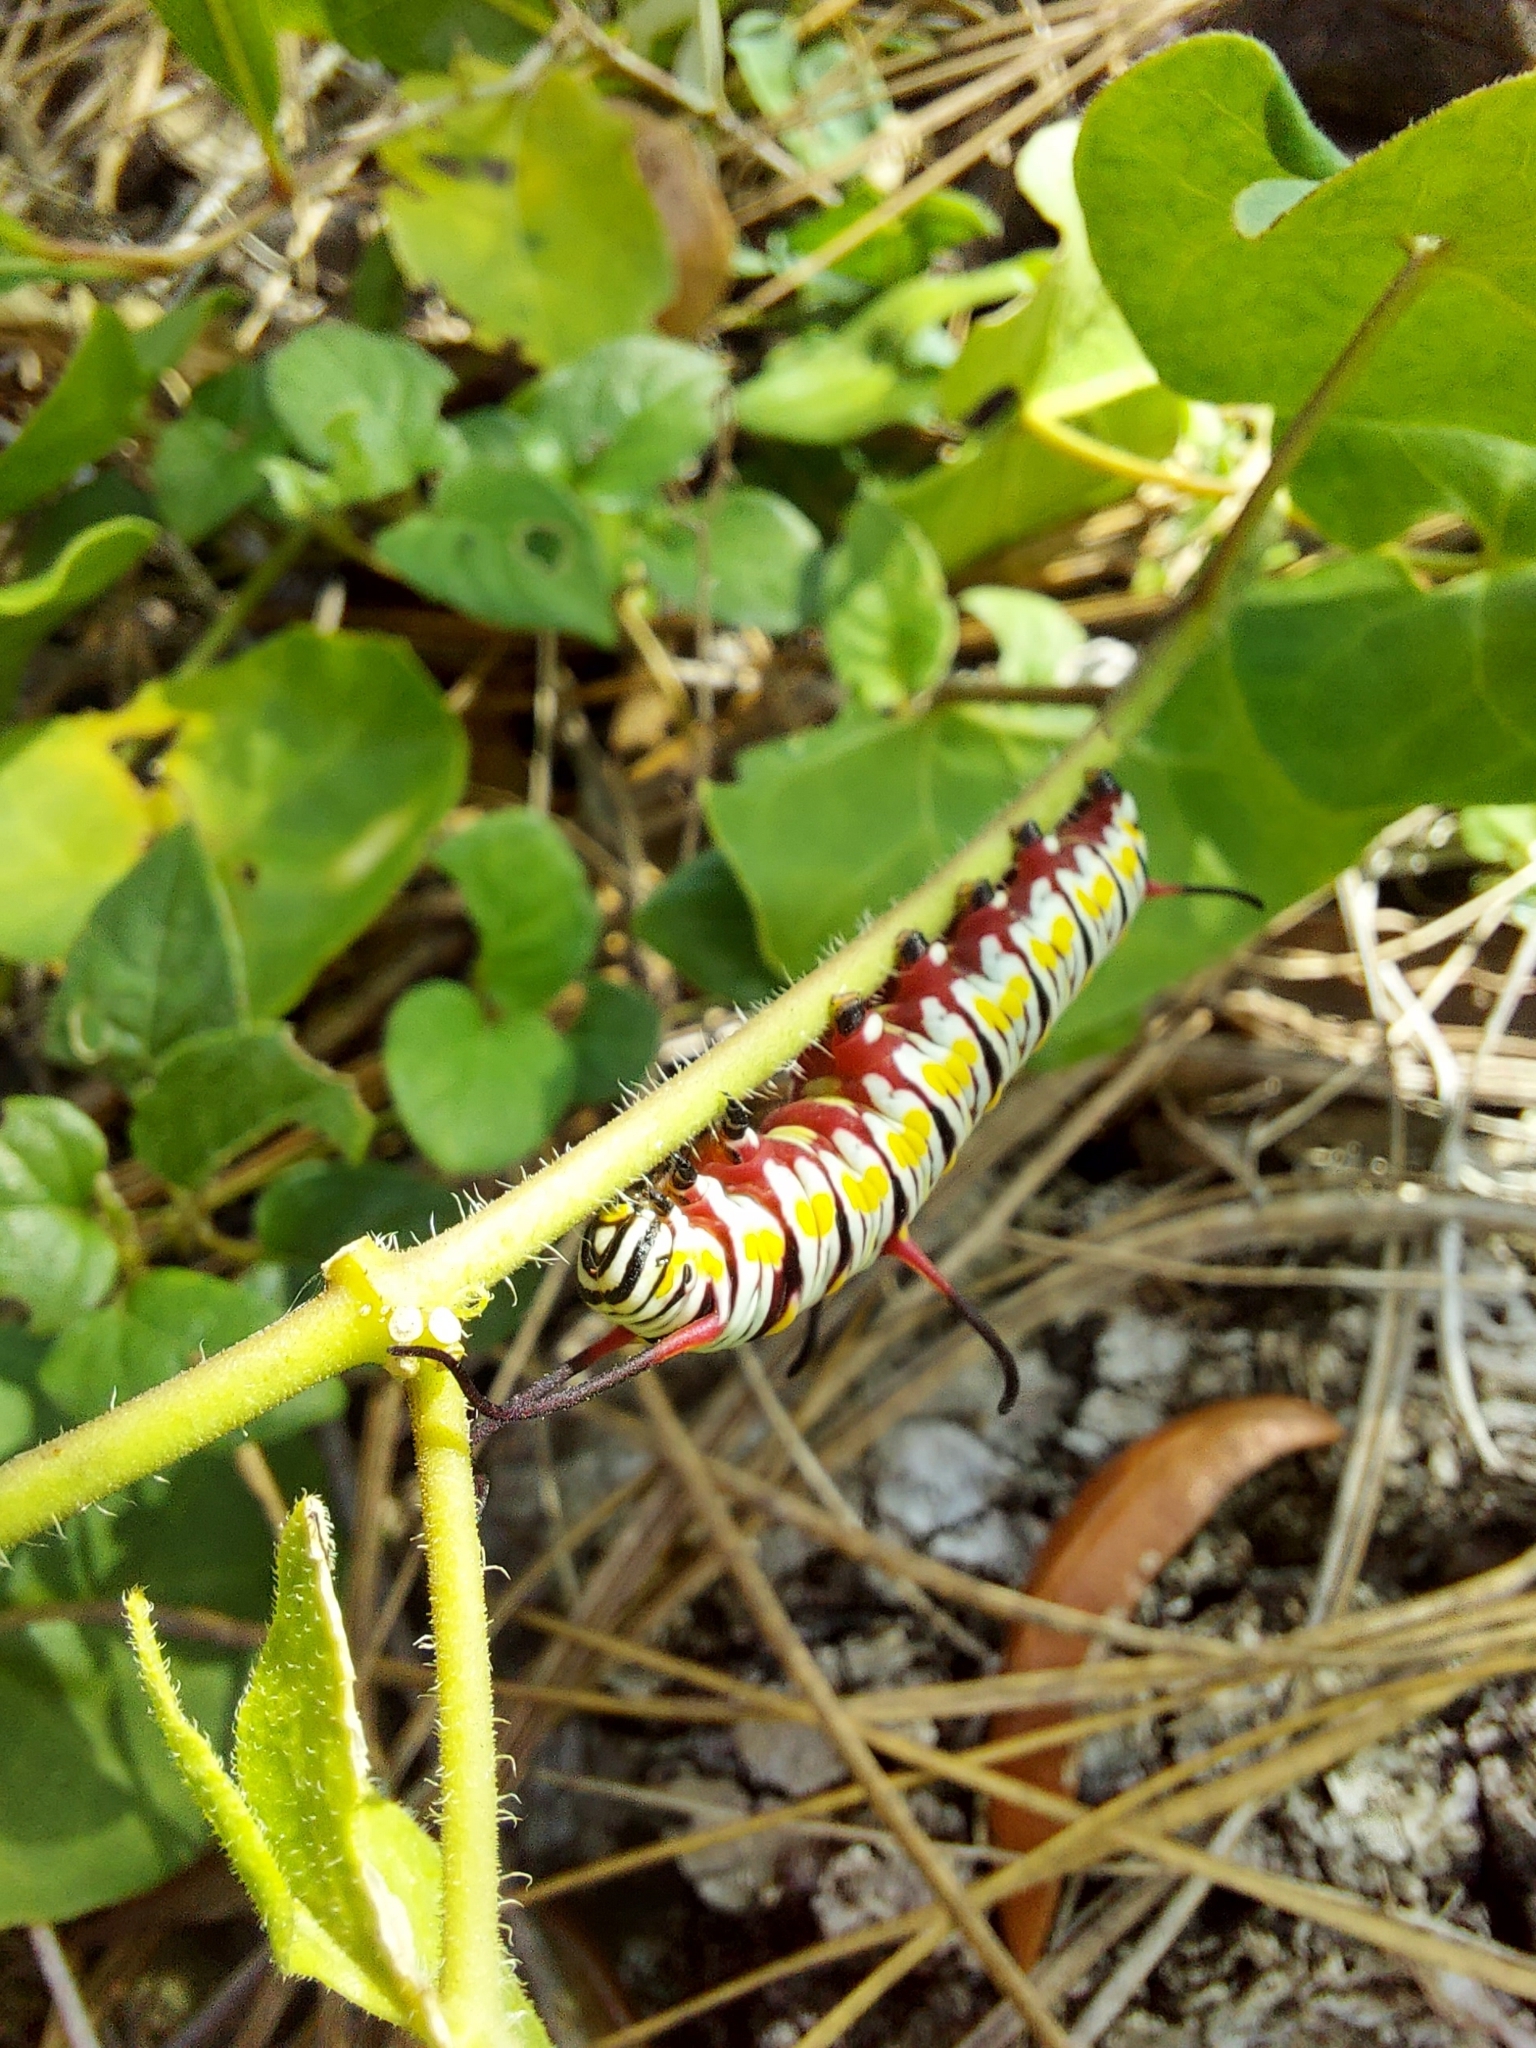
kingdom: Animalia
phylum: Arthropoda
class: Insecta
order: Lepidoptera
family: Nymphalidae
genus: Danaus
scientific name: Danaus gilippus
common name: Queen
